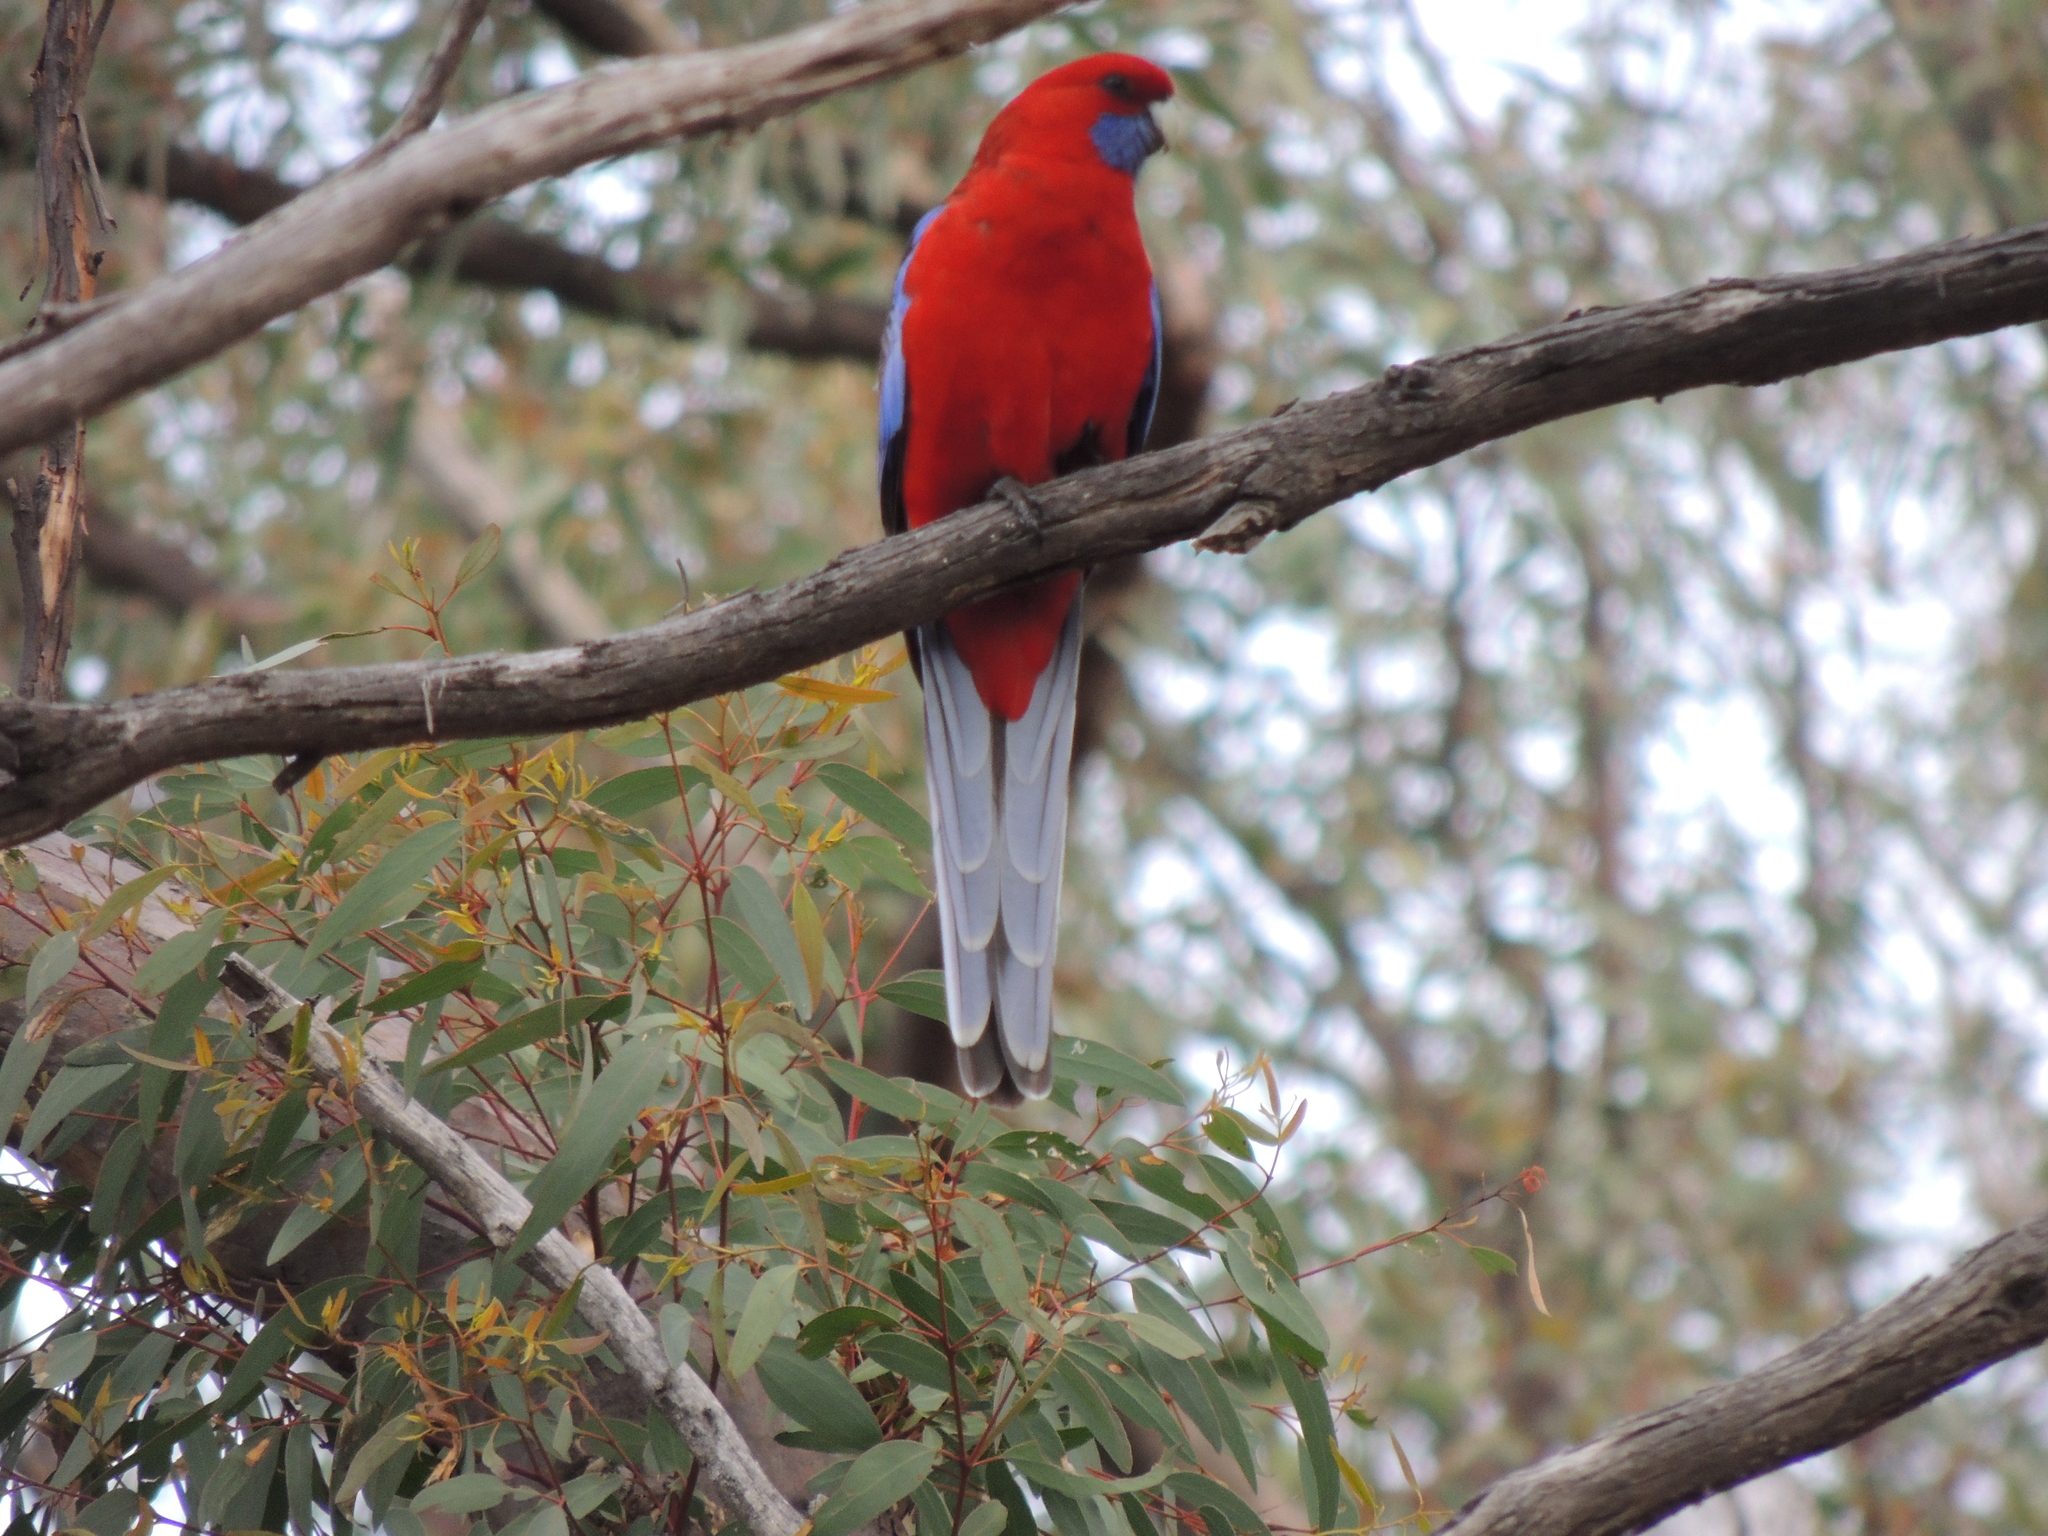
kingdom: Animalia
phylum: Chordata
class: Aves
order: Psittaciformes
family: Psittacidae
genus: Platycercus
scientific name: Platycercus elegans
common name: Crimson rosella
